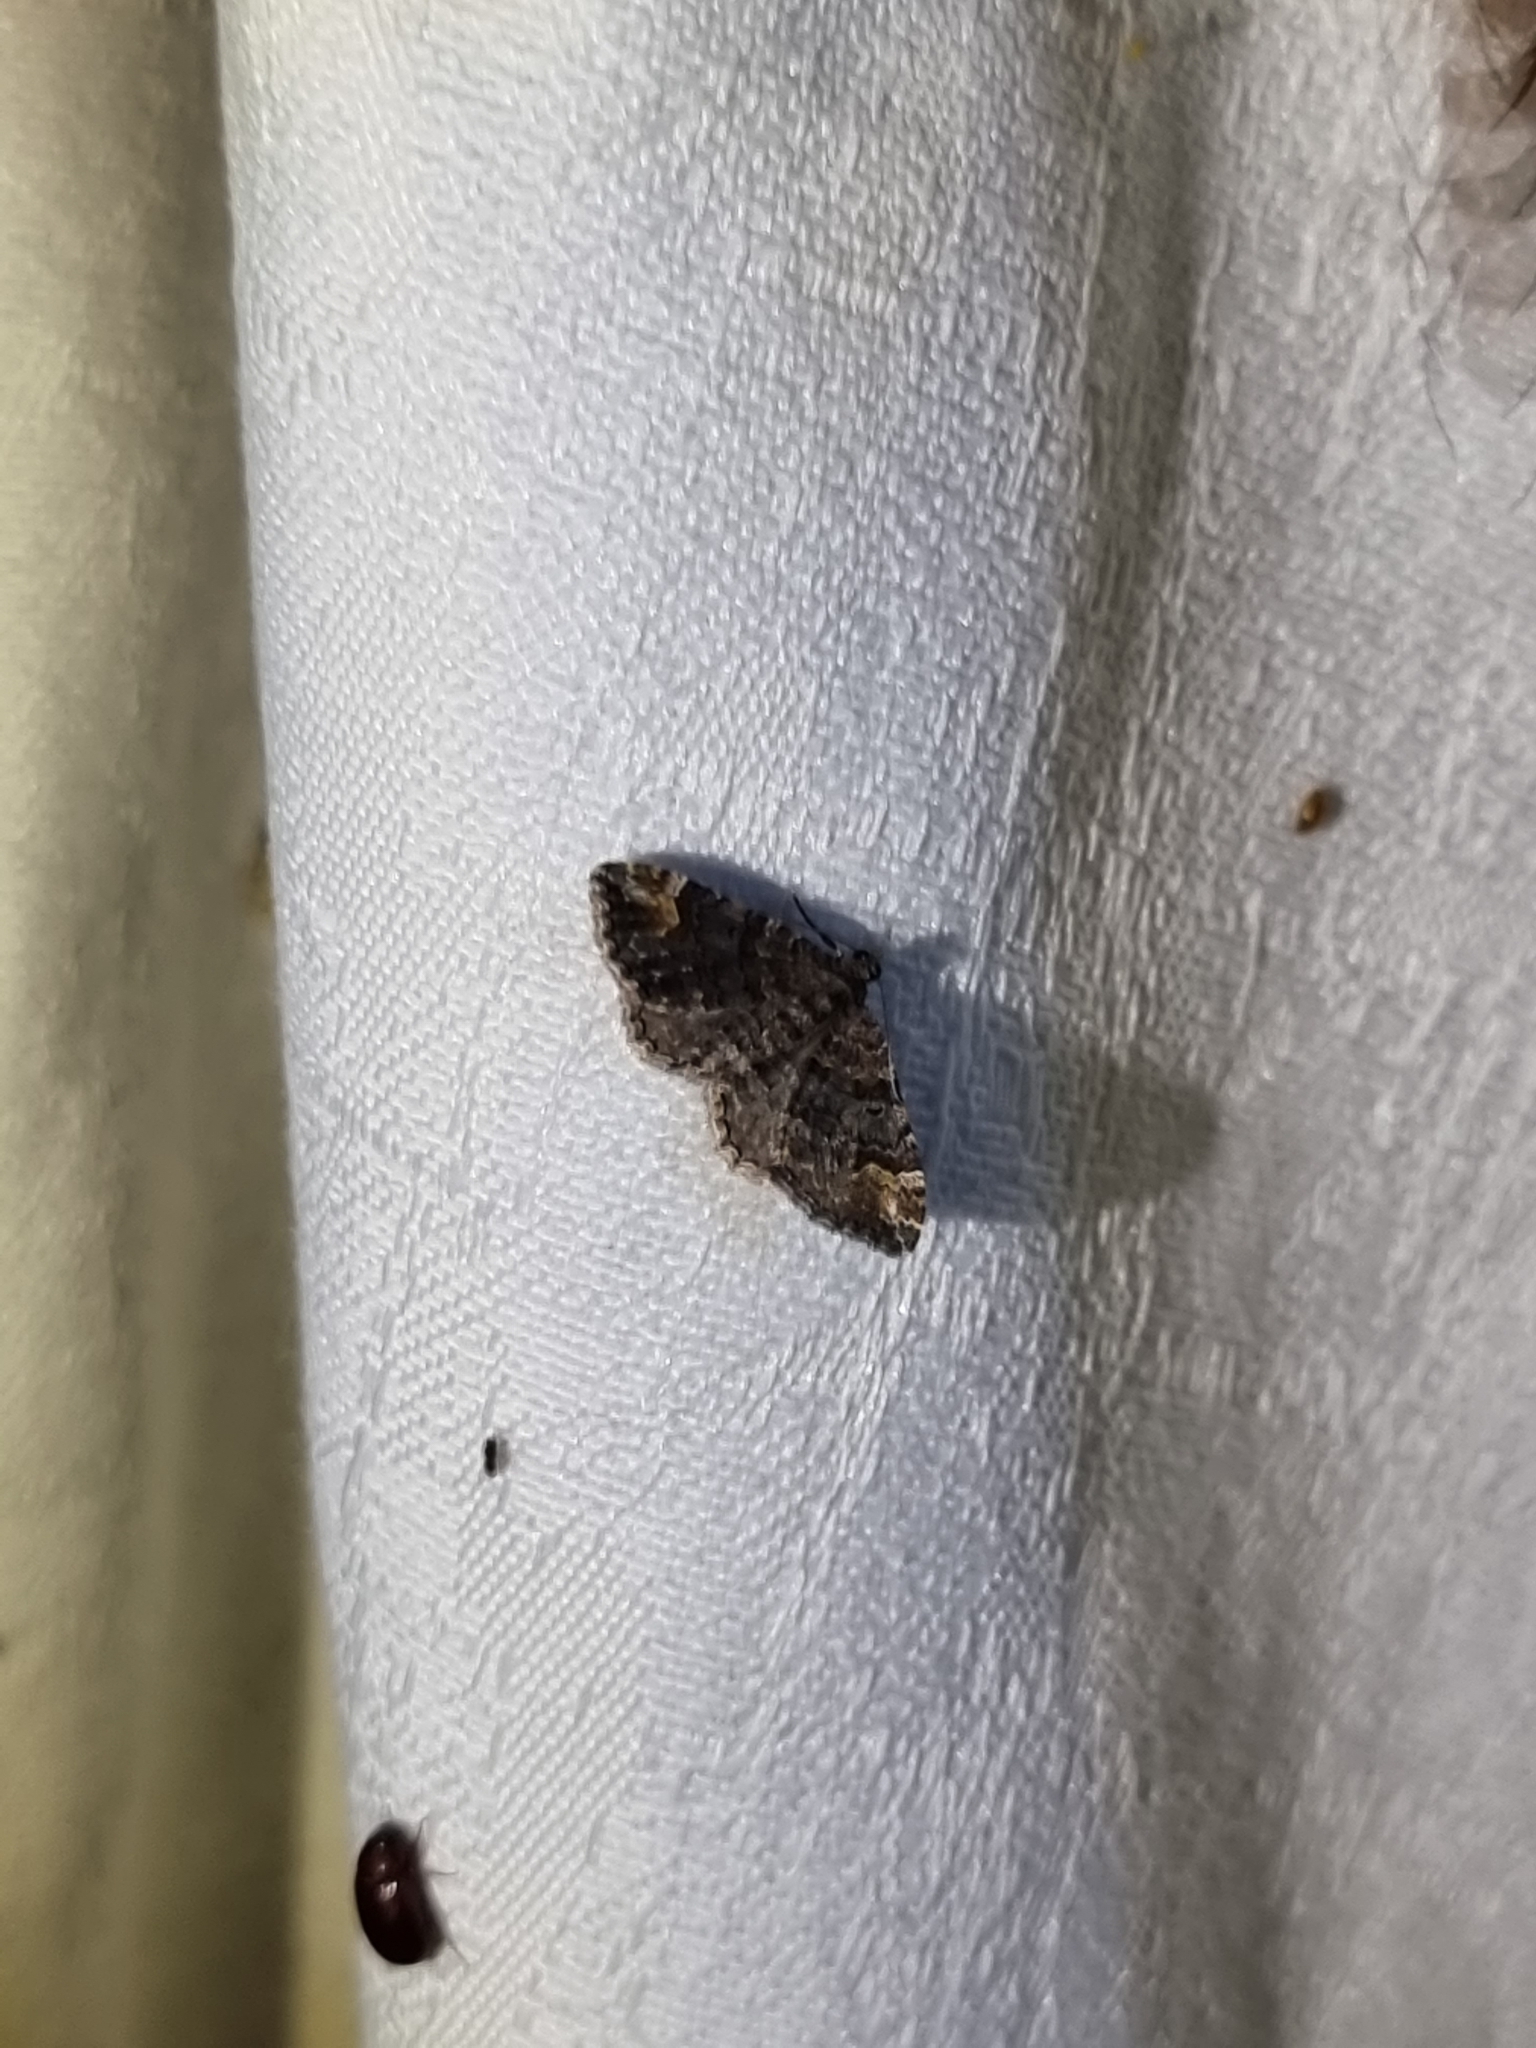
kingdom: Animalia
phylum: Arthropoda
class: Insecta
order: Lepidoptera
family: Geometridae
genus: Epyaxa
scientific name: Epyaxa sodaliata
